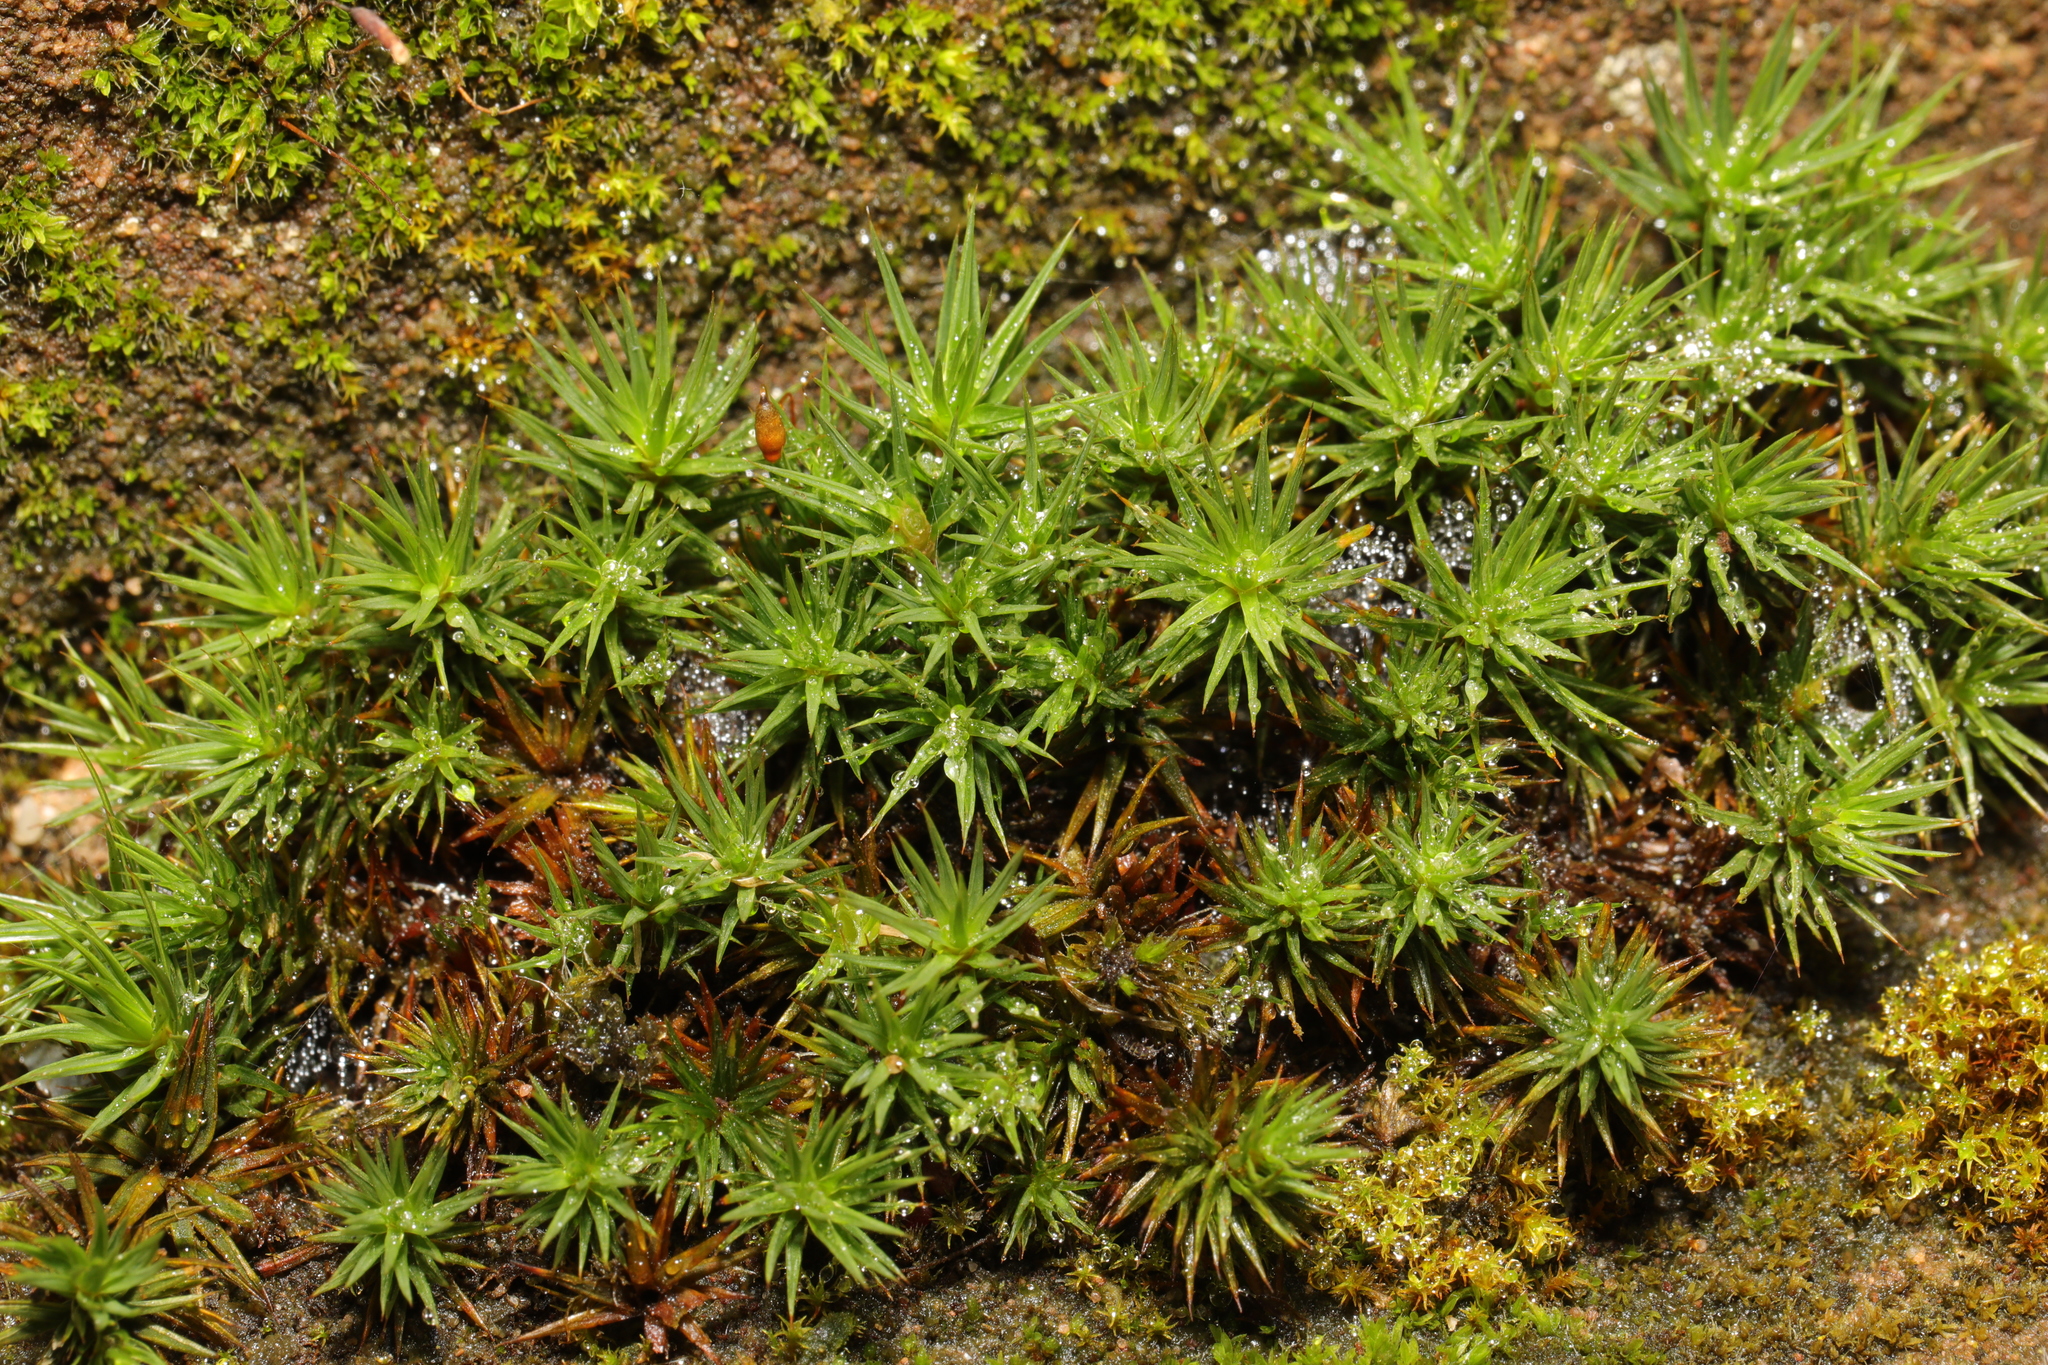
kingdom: Plantae
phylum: Bryophyta
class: Polytrichopsida
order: Polytrichales
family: Polytrichaceae
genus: Polytrichum
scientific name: Polytrichum juniperinum
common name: Juniper haircap moss
